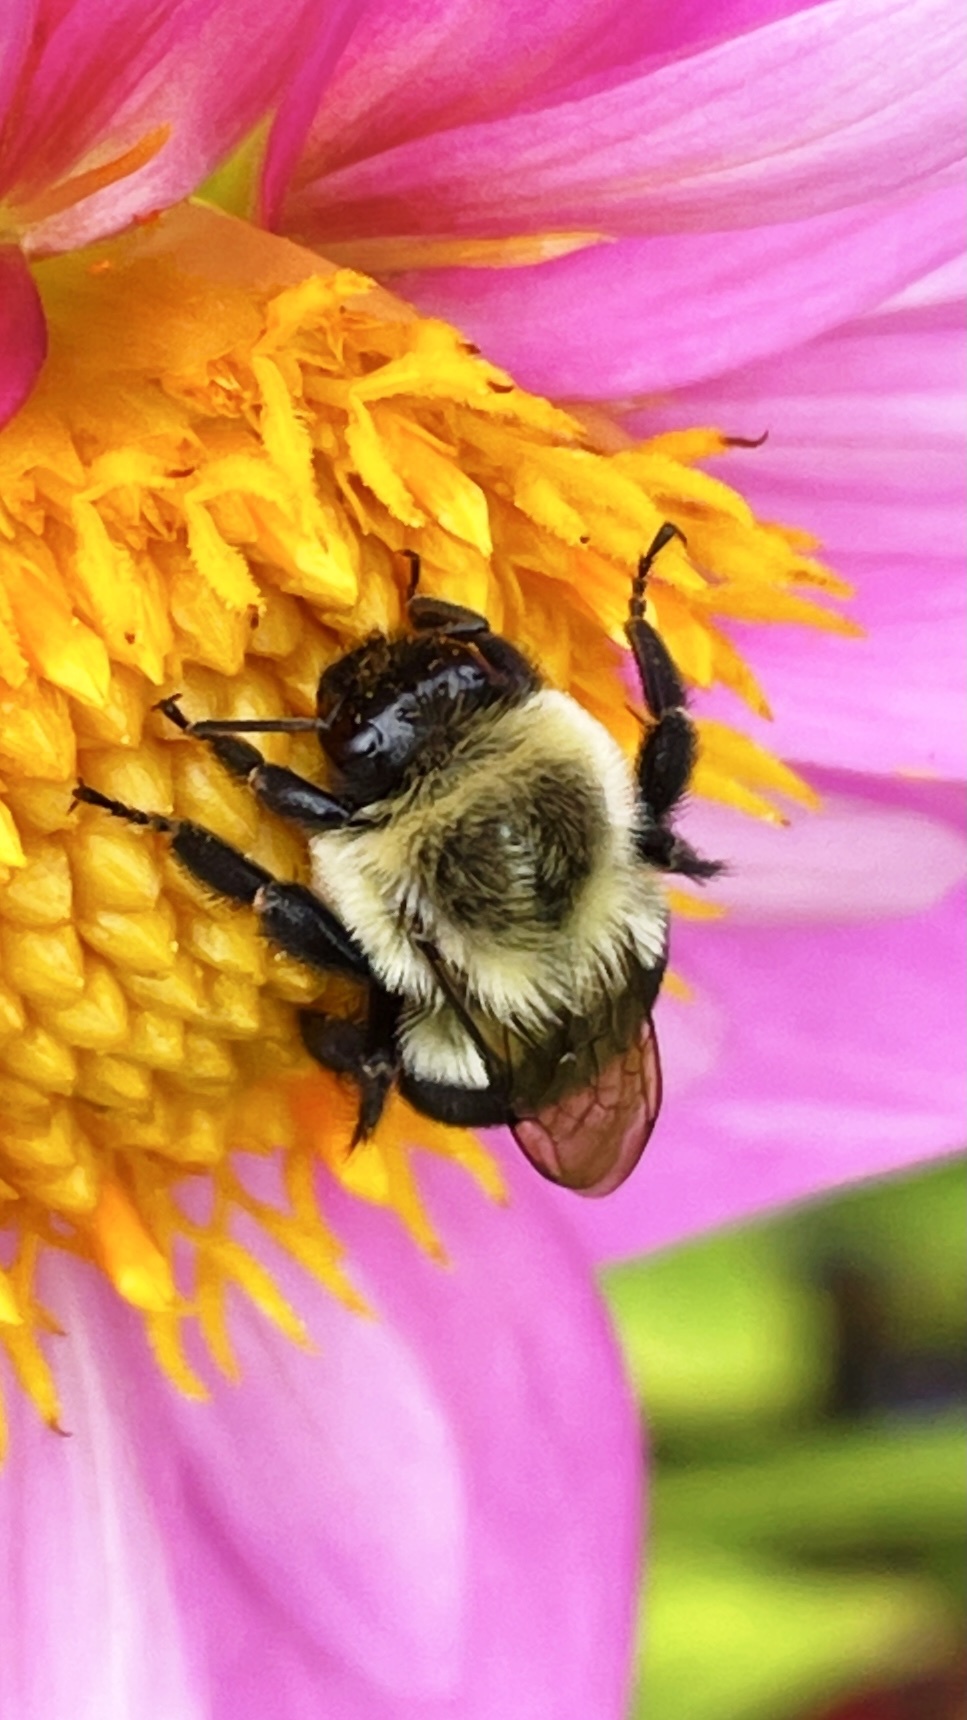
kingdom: Animalia
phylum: Arthropoda
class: Insecta
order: Hymenoptera
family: Apidae
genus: Bombus
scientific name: Bombus impatiens
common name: Common eastern bumble bee
